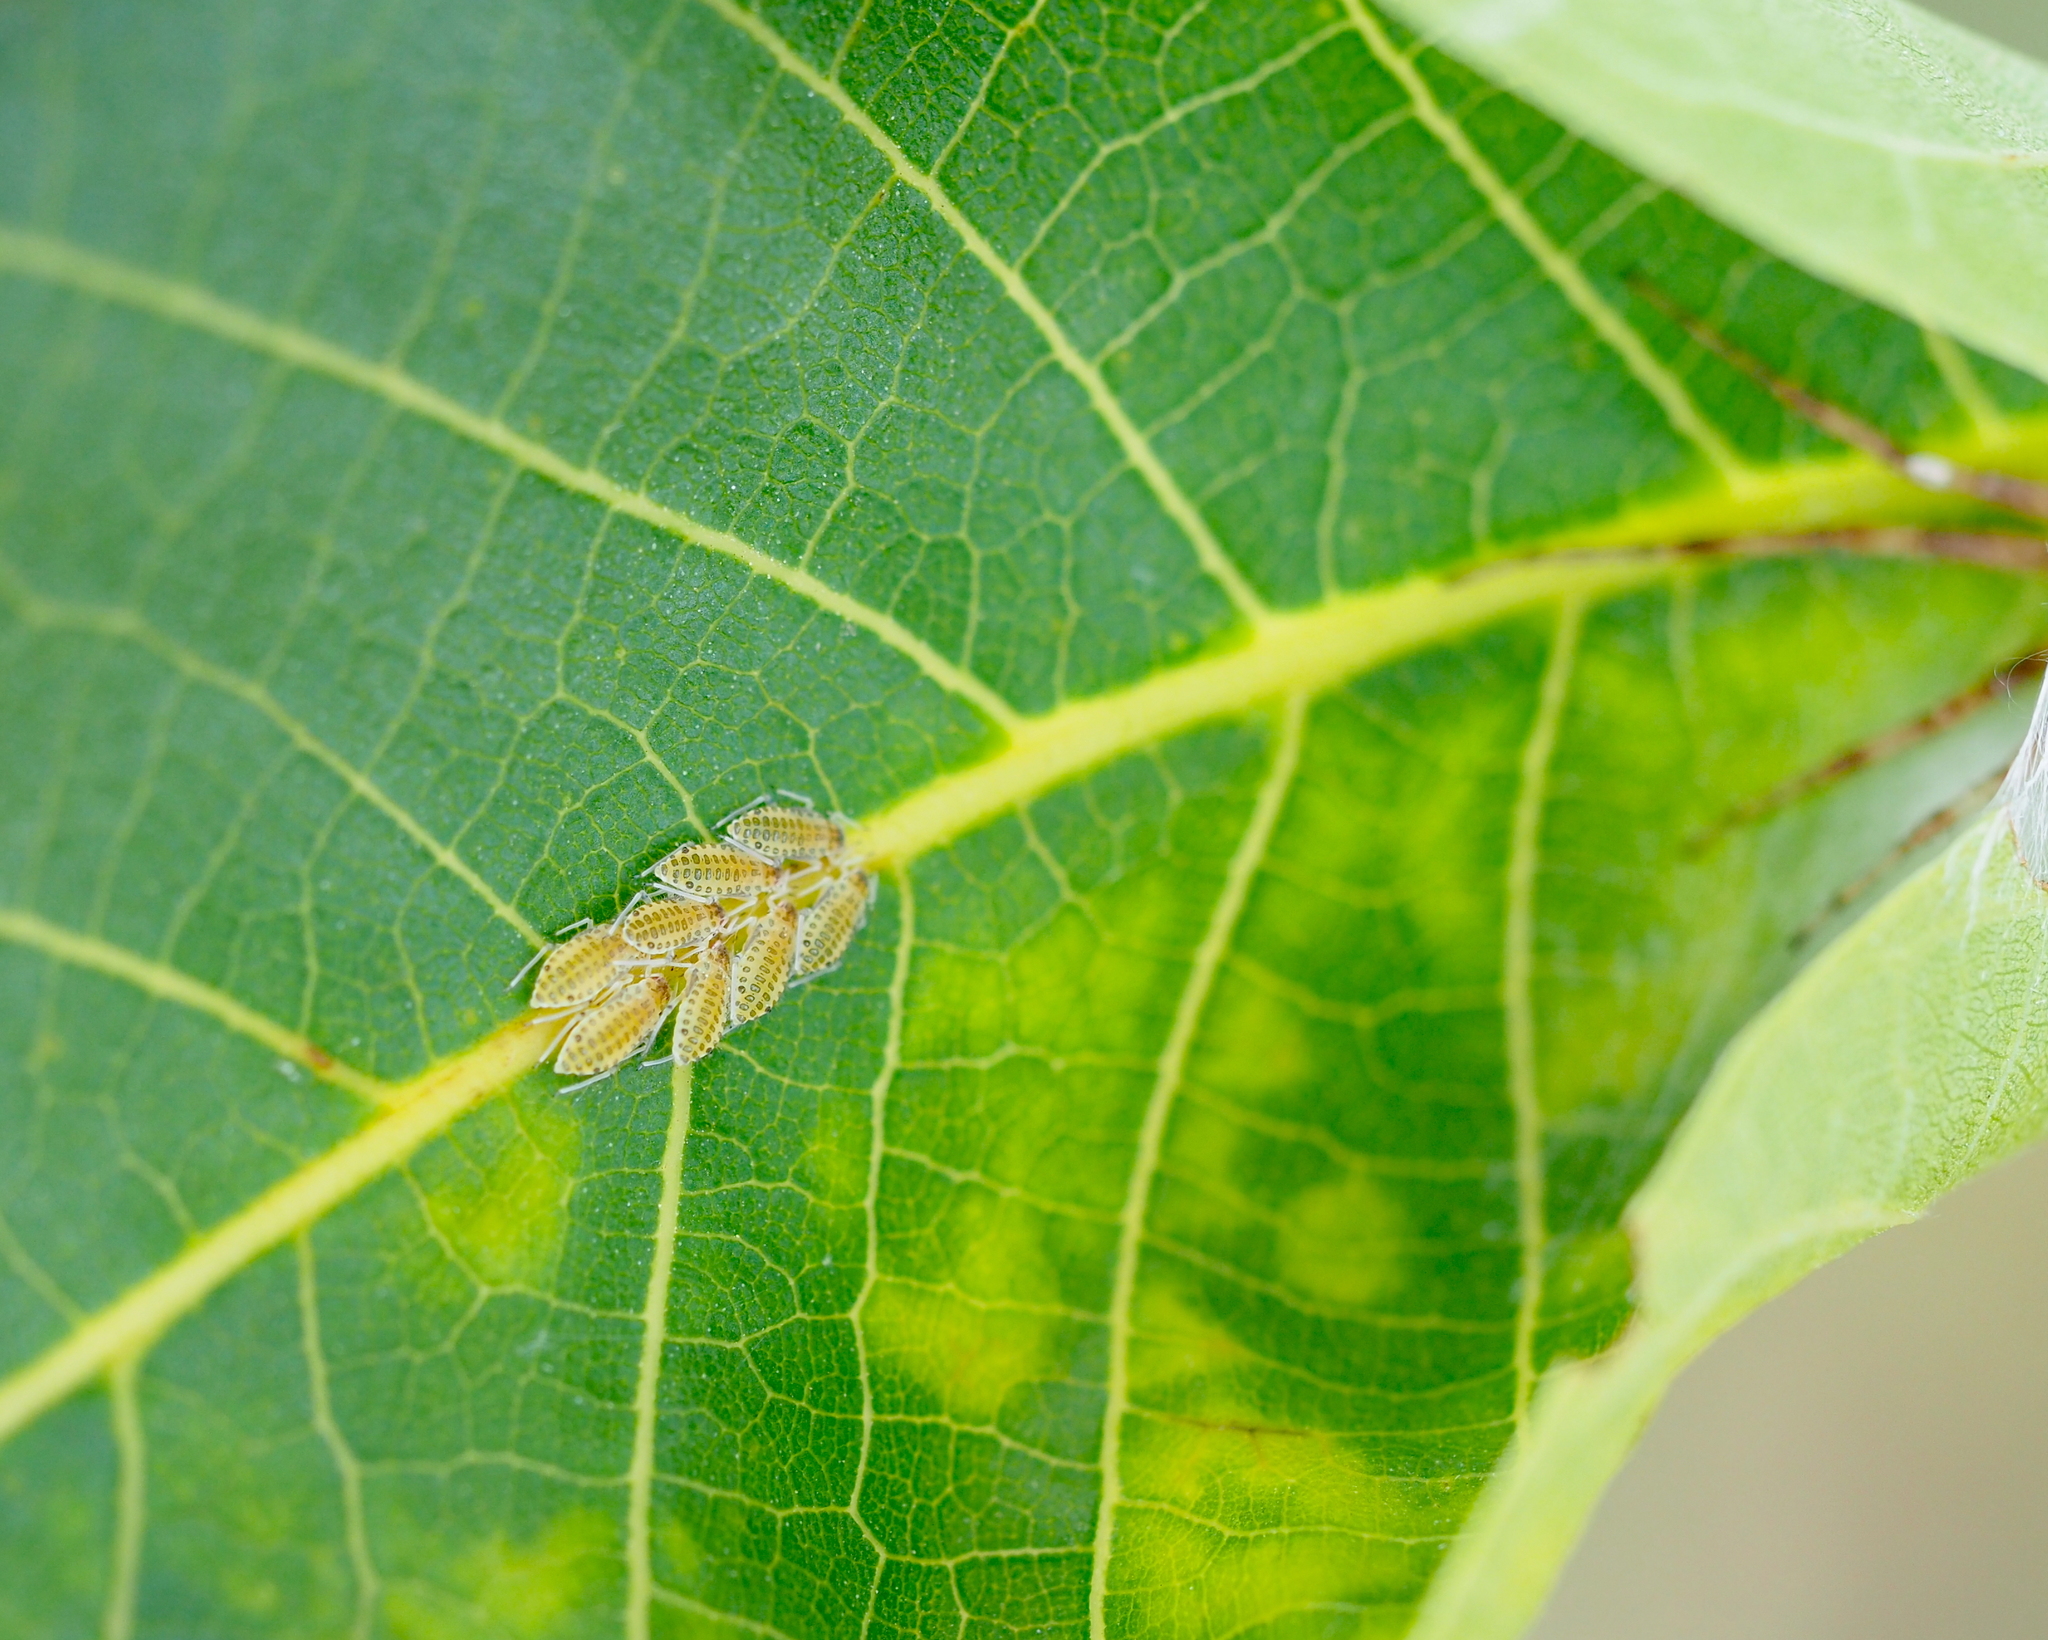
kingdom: Animalia
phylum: Arthropoda
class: Insecta
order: Hemiptera
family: Aphididae
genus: Panaphis
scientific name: Panaphis juglandis
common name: Large walnut aphid
